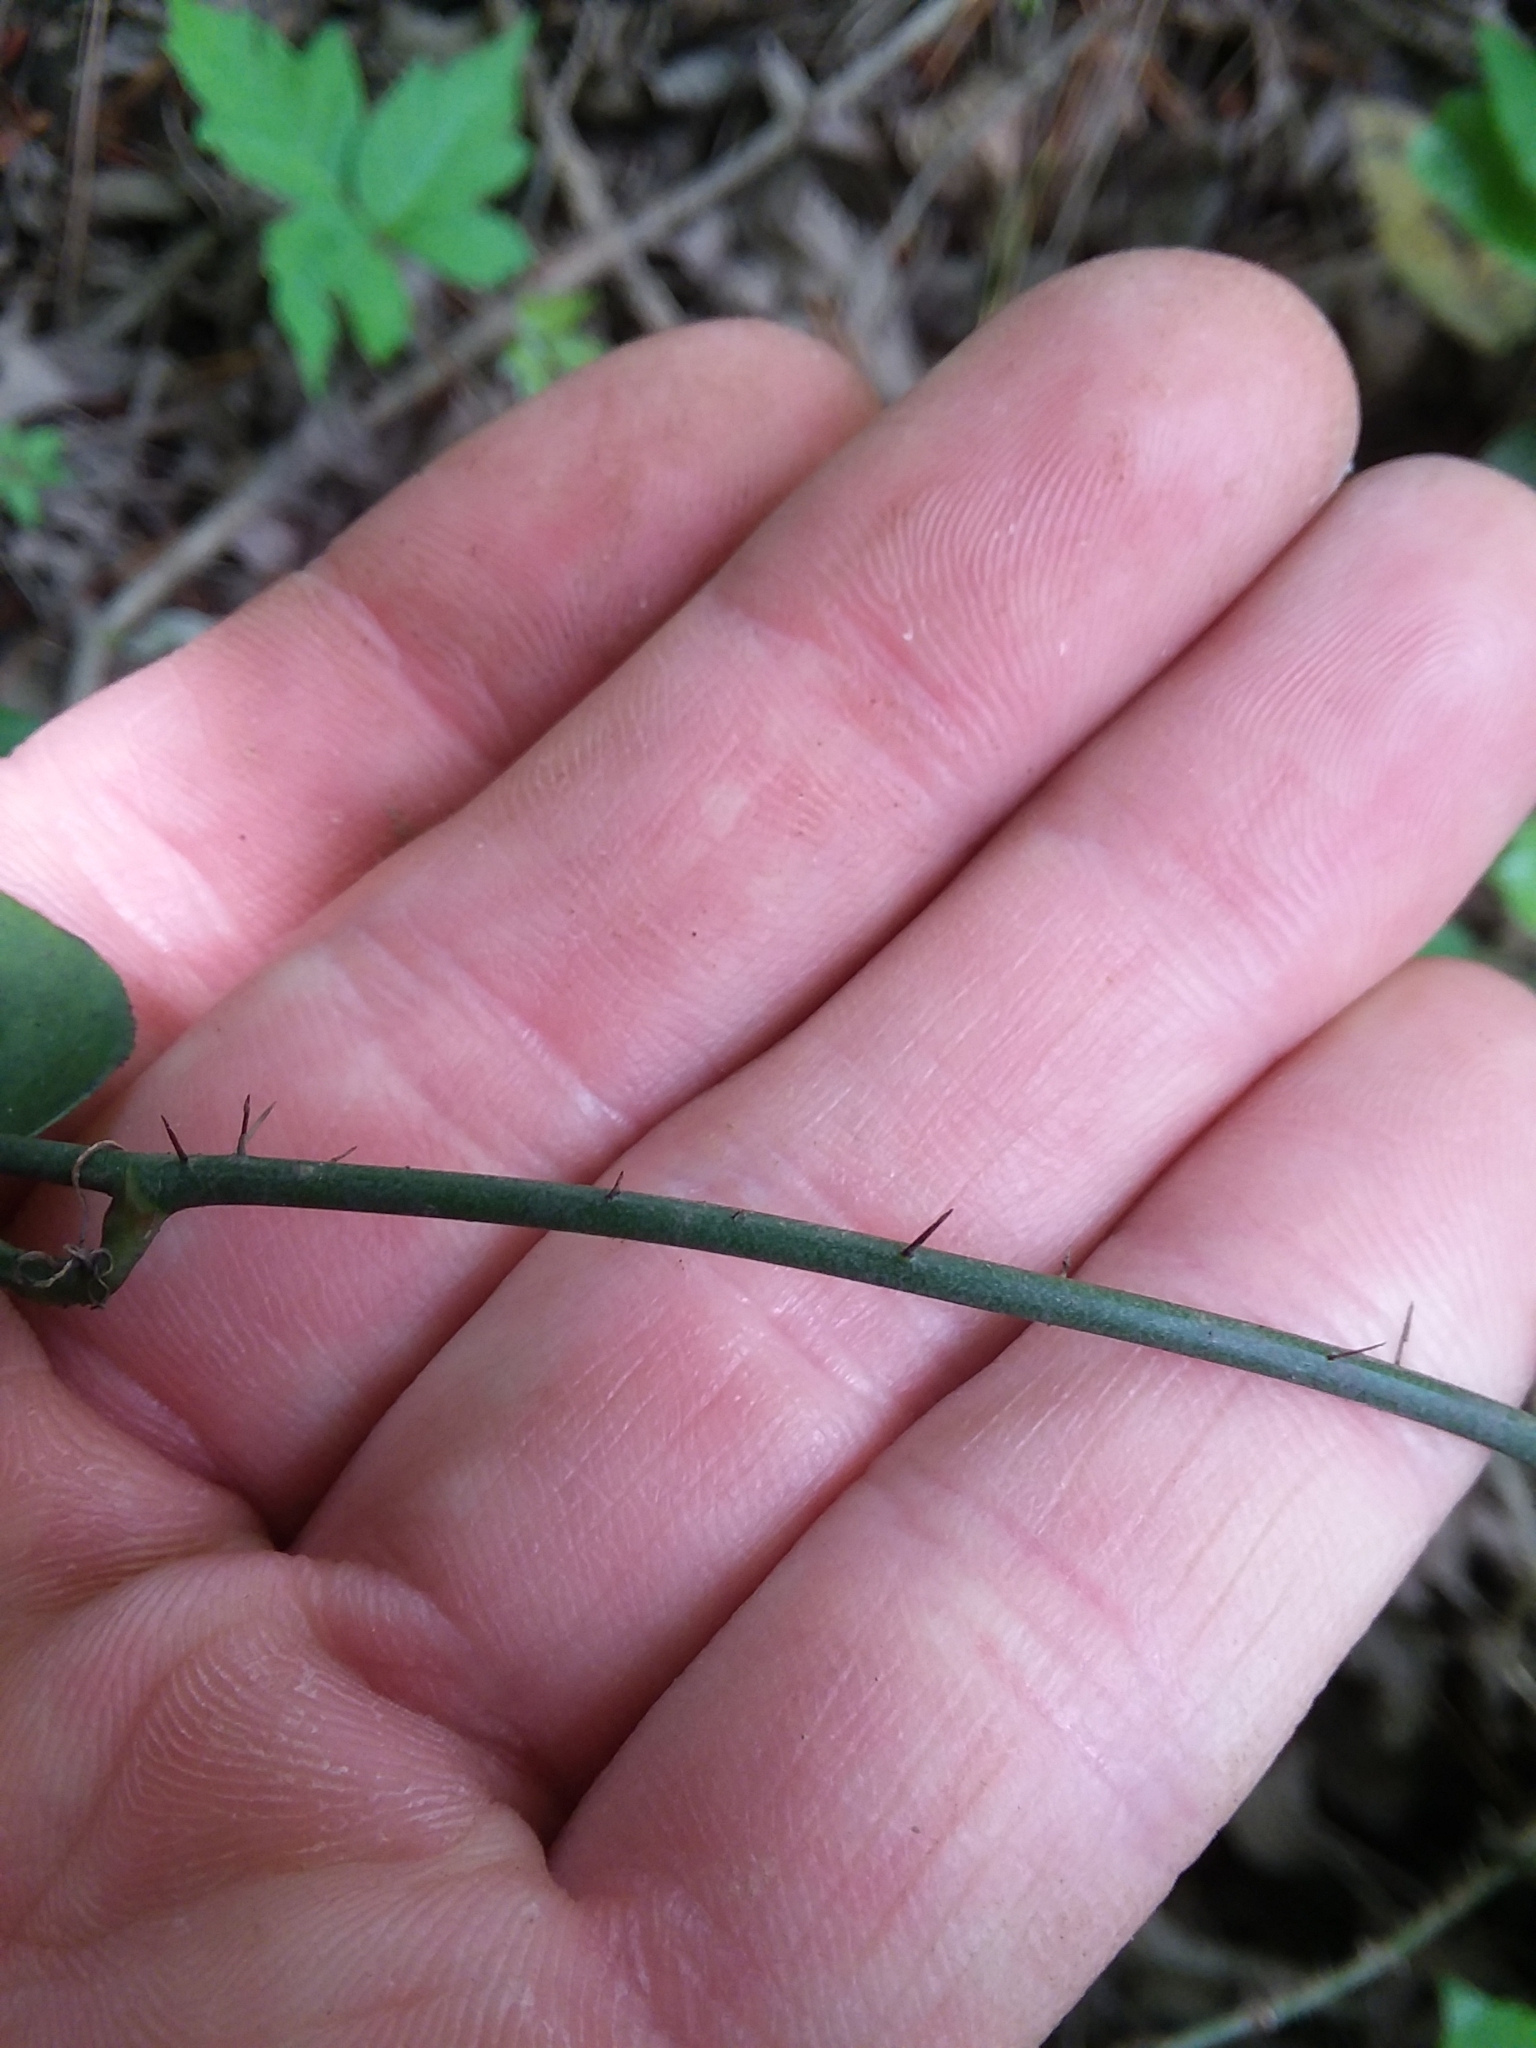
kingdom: Plantae
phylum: Tracheophyta
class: Liliopsida
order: Liliales
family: Smilacaceae
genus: Smilax
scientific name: Smilax tamnoides
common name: Hellfetter
